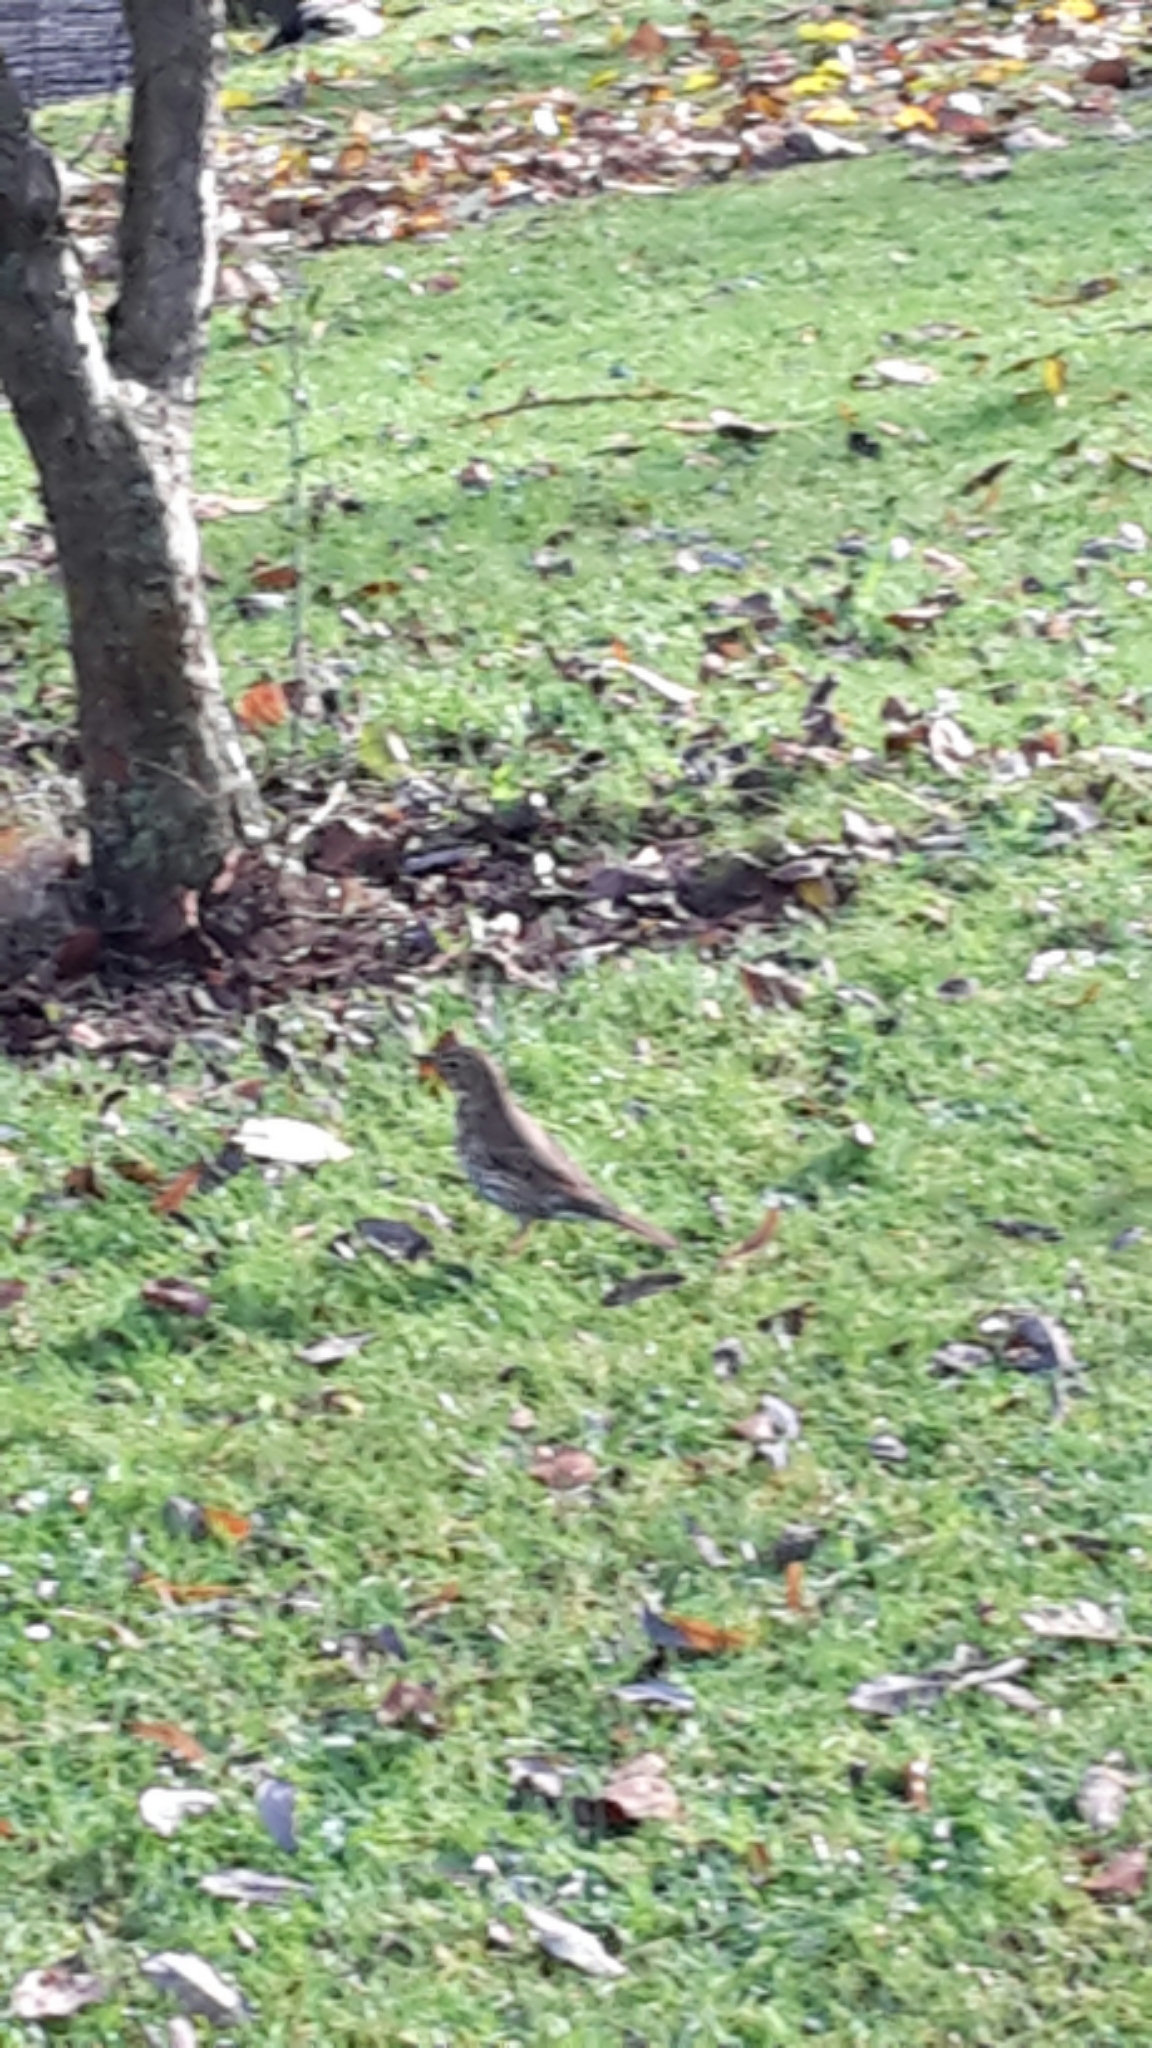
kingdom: Animalia
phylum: Chordata
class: Aves
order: Passeriformes
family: Turdidae
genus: Turdus
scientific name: Turdus philomelos
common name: Song thrush
